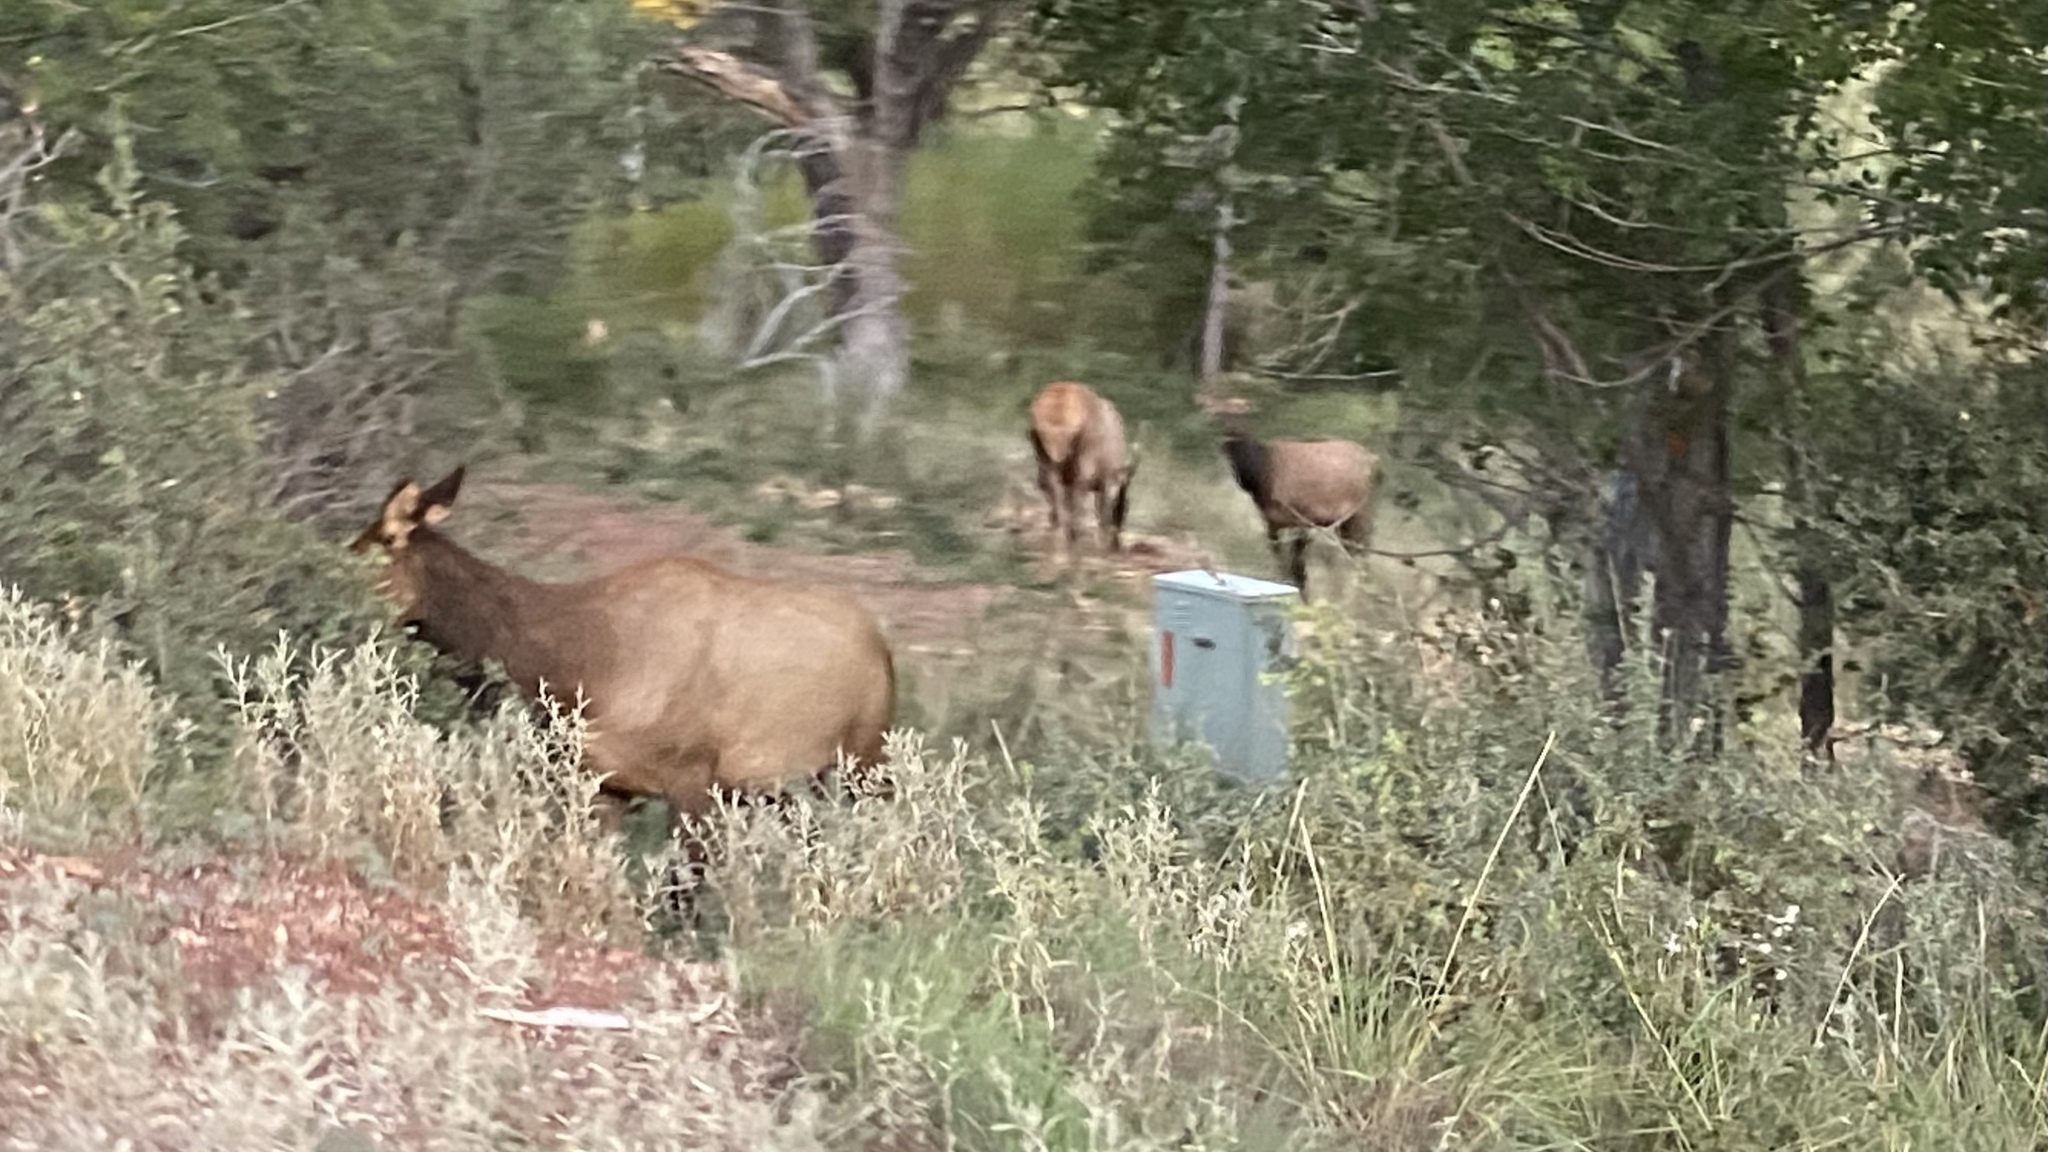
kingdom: Animalia
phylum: Chordata
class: Mammalia
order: Artiodactyla
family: Cervidae
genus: Cervus
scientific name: Cervus elaphus
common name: Red deer
